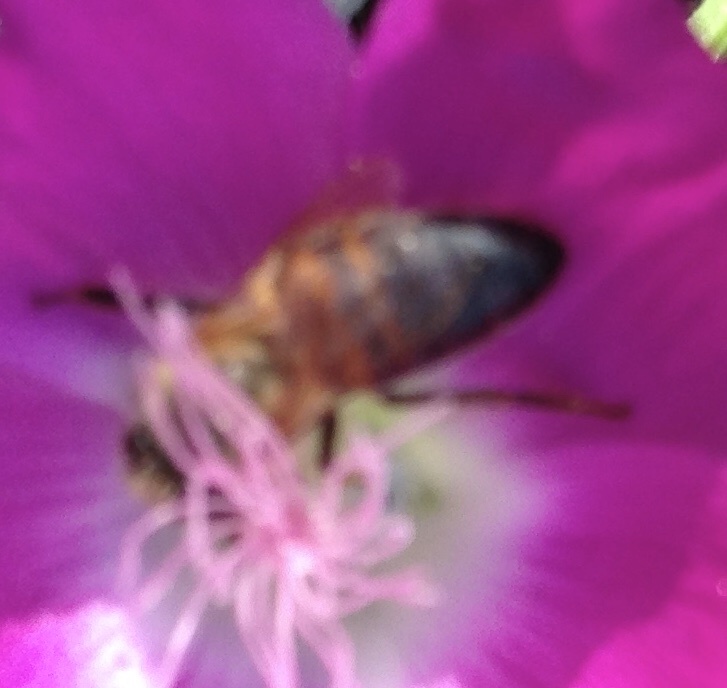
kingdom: Animalia
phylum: Arthropoda
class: Insecta
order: Hymenoptera
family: Apidae
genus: Apis
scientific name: Apis mellifera
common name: Honey bee
